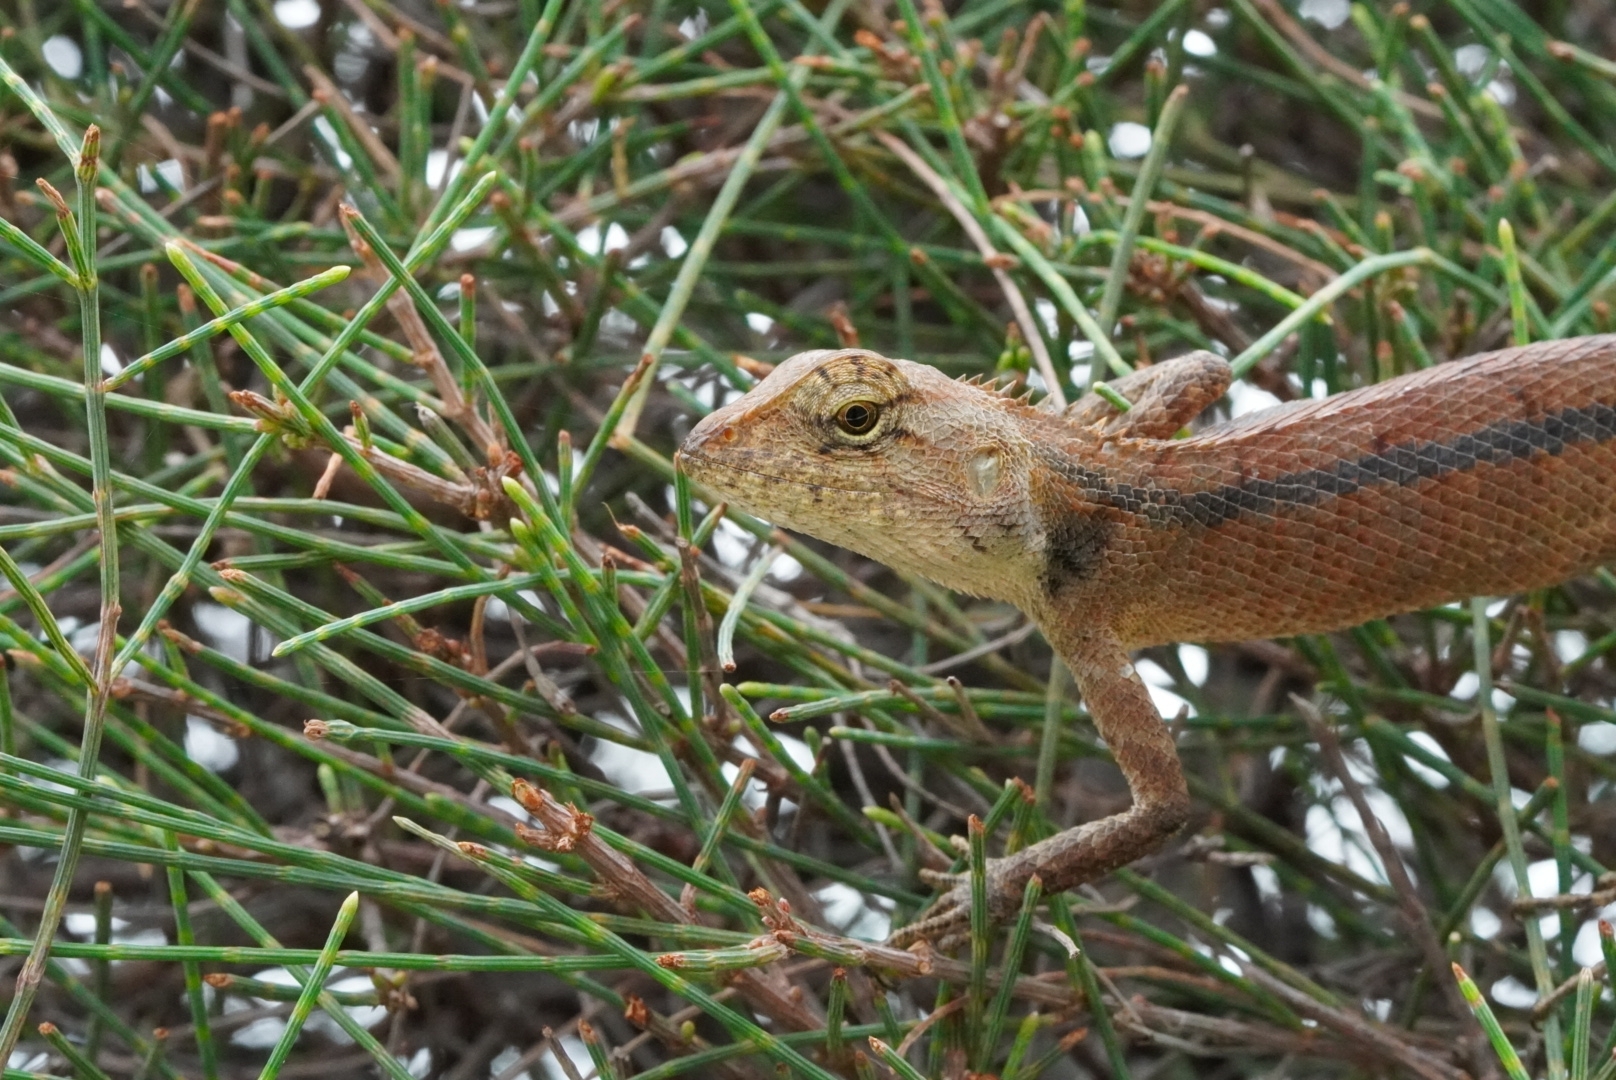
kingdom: Animalia
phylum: Chordata
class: Squamata
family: Agamidae
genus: Calotes
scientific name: Calotes versicolor
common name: Oriental garden lizard
